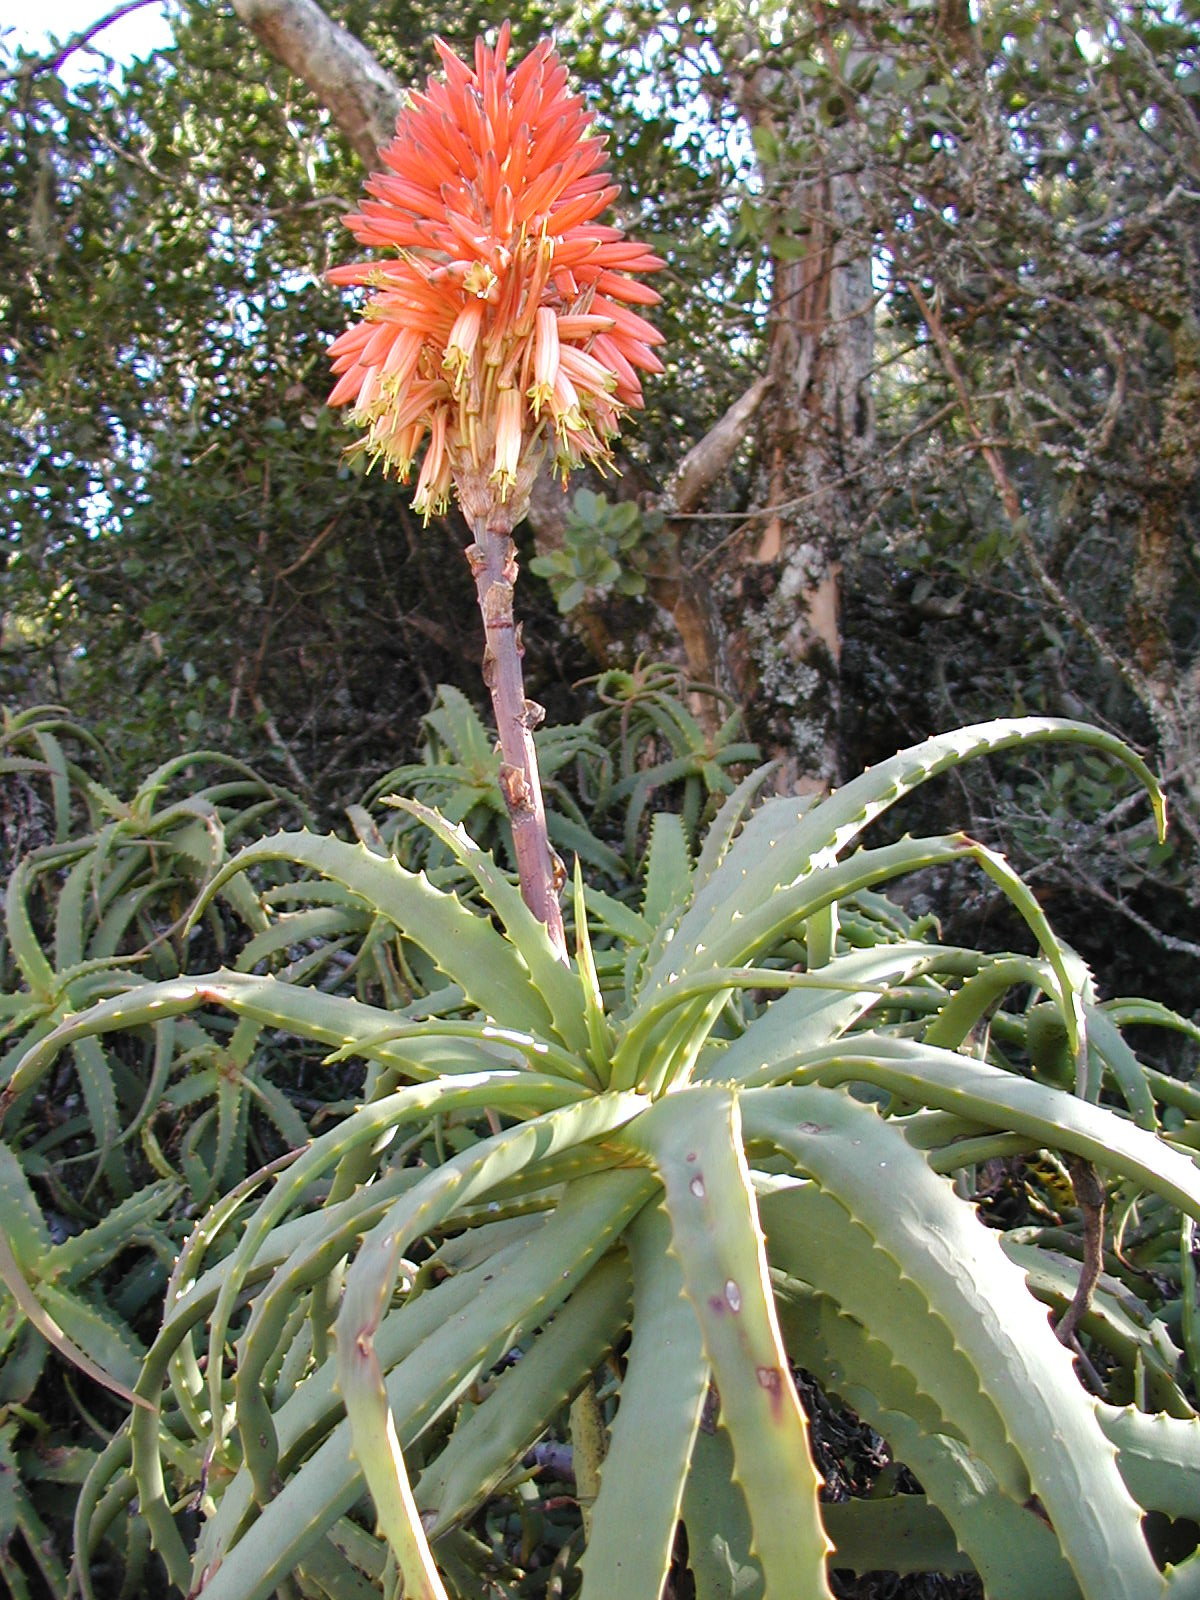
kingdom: Plantae
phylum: Tracheophyta
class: Liliopsida
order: Asparagales
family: Asphodelaceae
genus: Aloe
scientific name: Aloe arborescens
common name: Candelabra aloe
